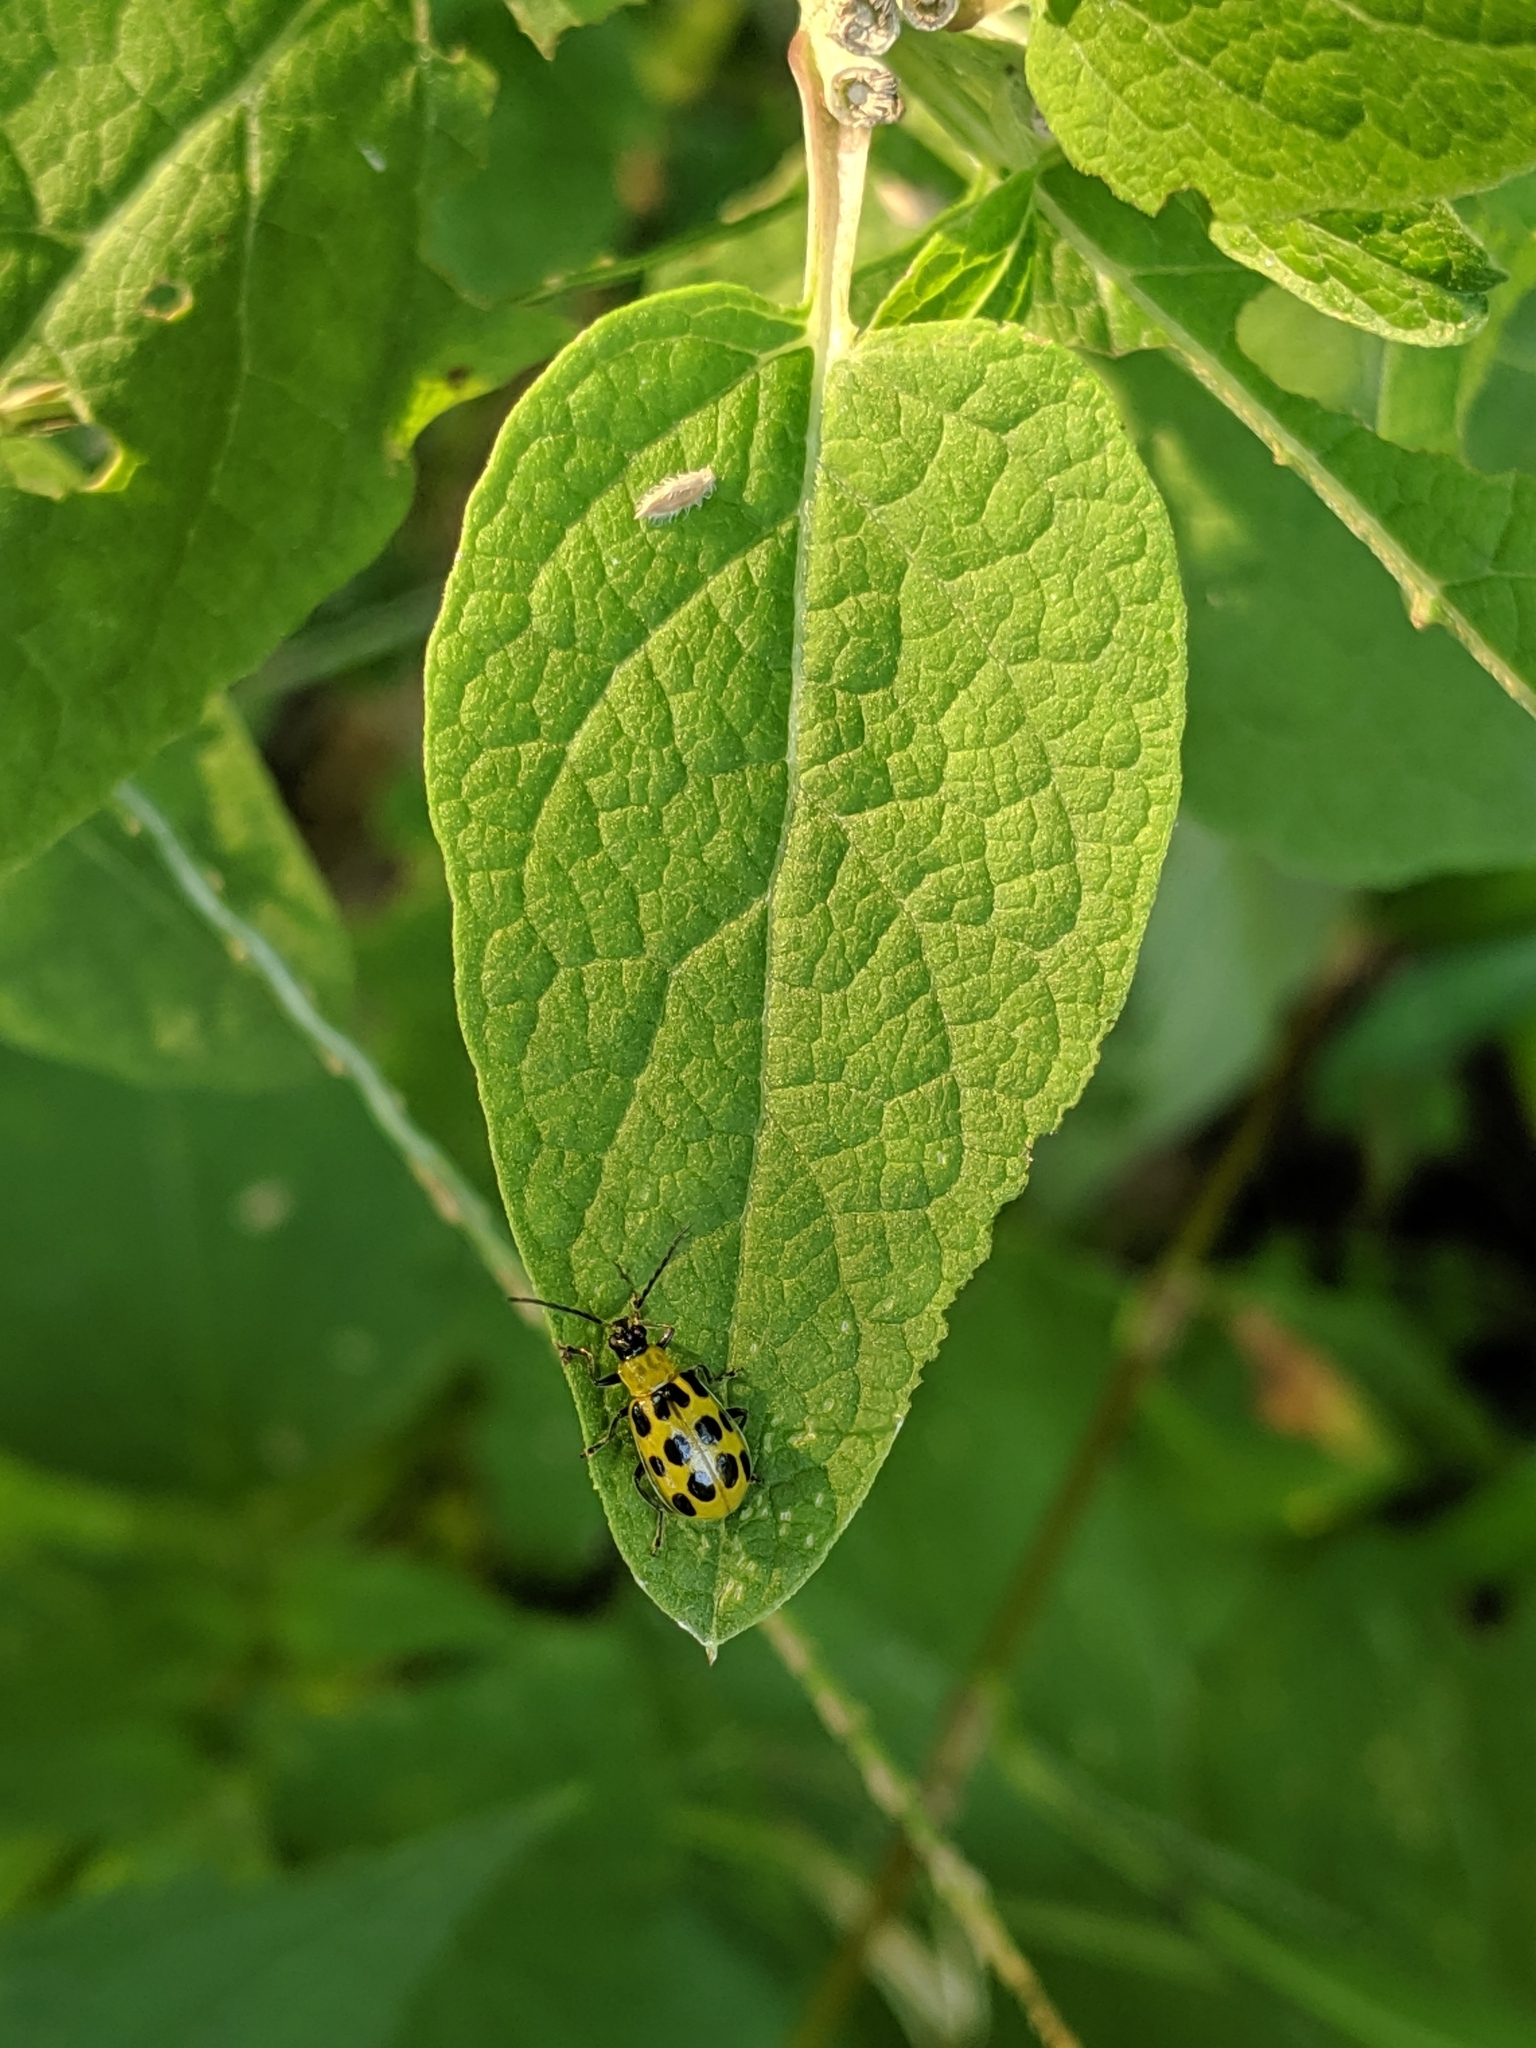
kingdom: Animalia
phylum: Arthropoda
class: Insecta
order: Coleoptera
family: Chrysomelidae
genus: Diabrotica
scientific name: Diabrotica undecimpunctata
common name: Spotted cucumber beetle
